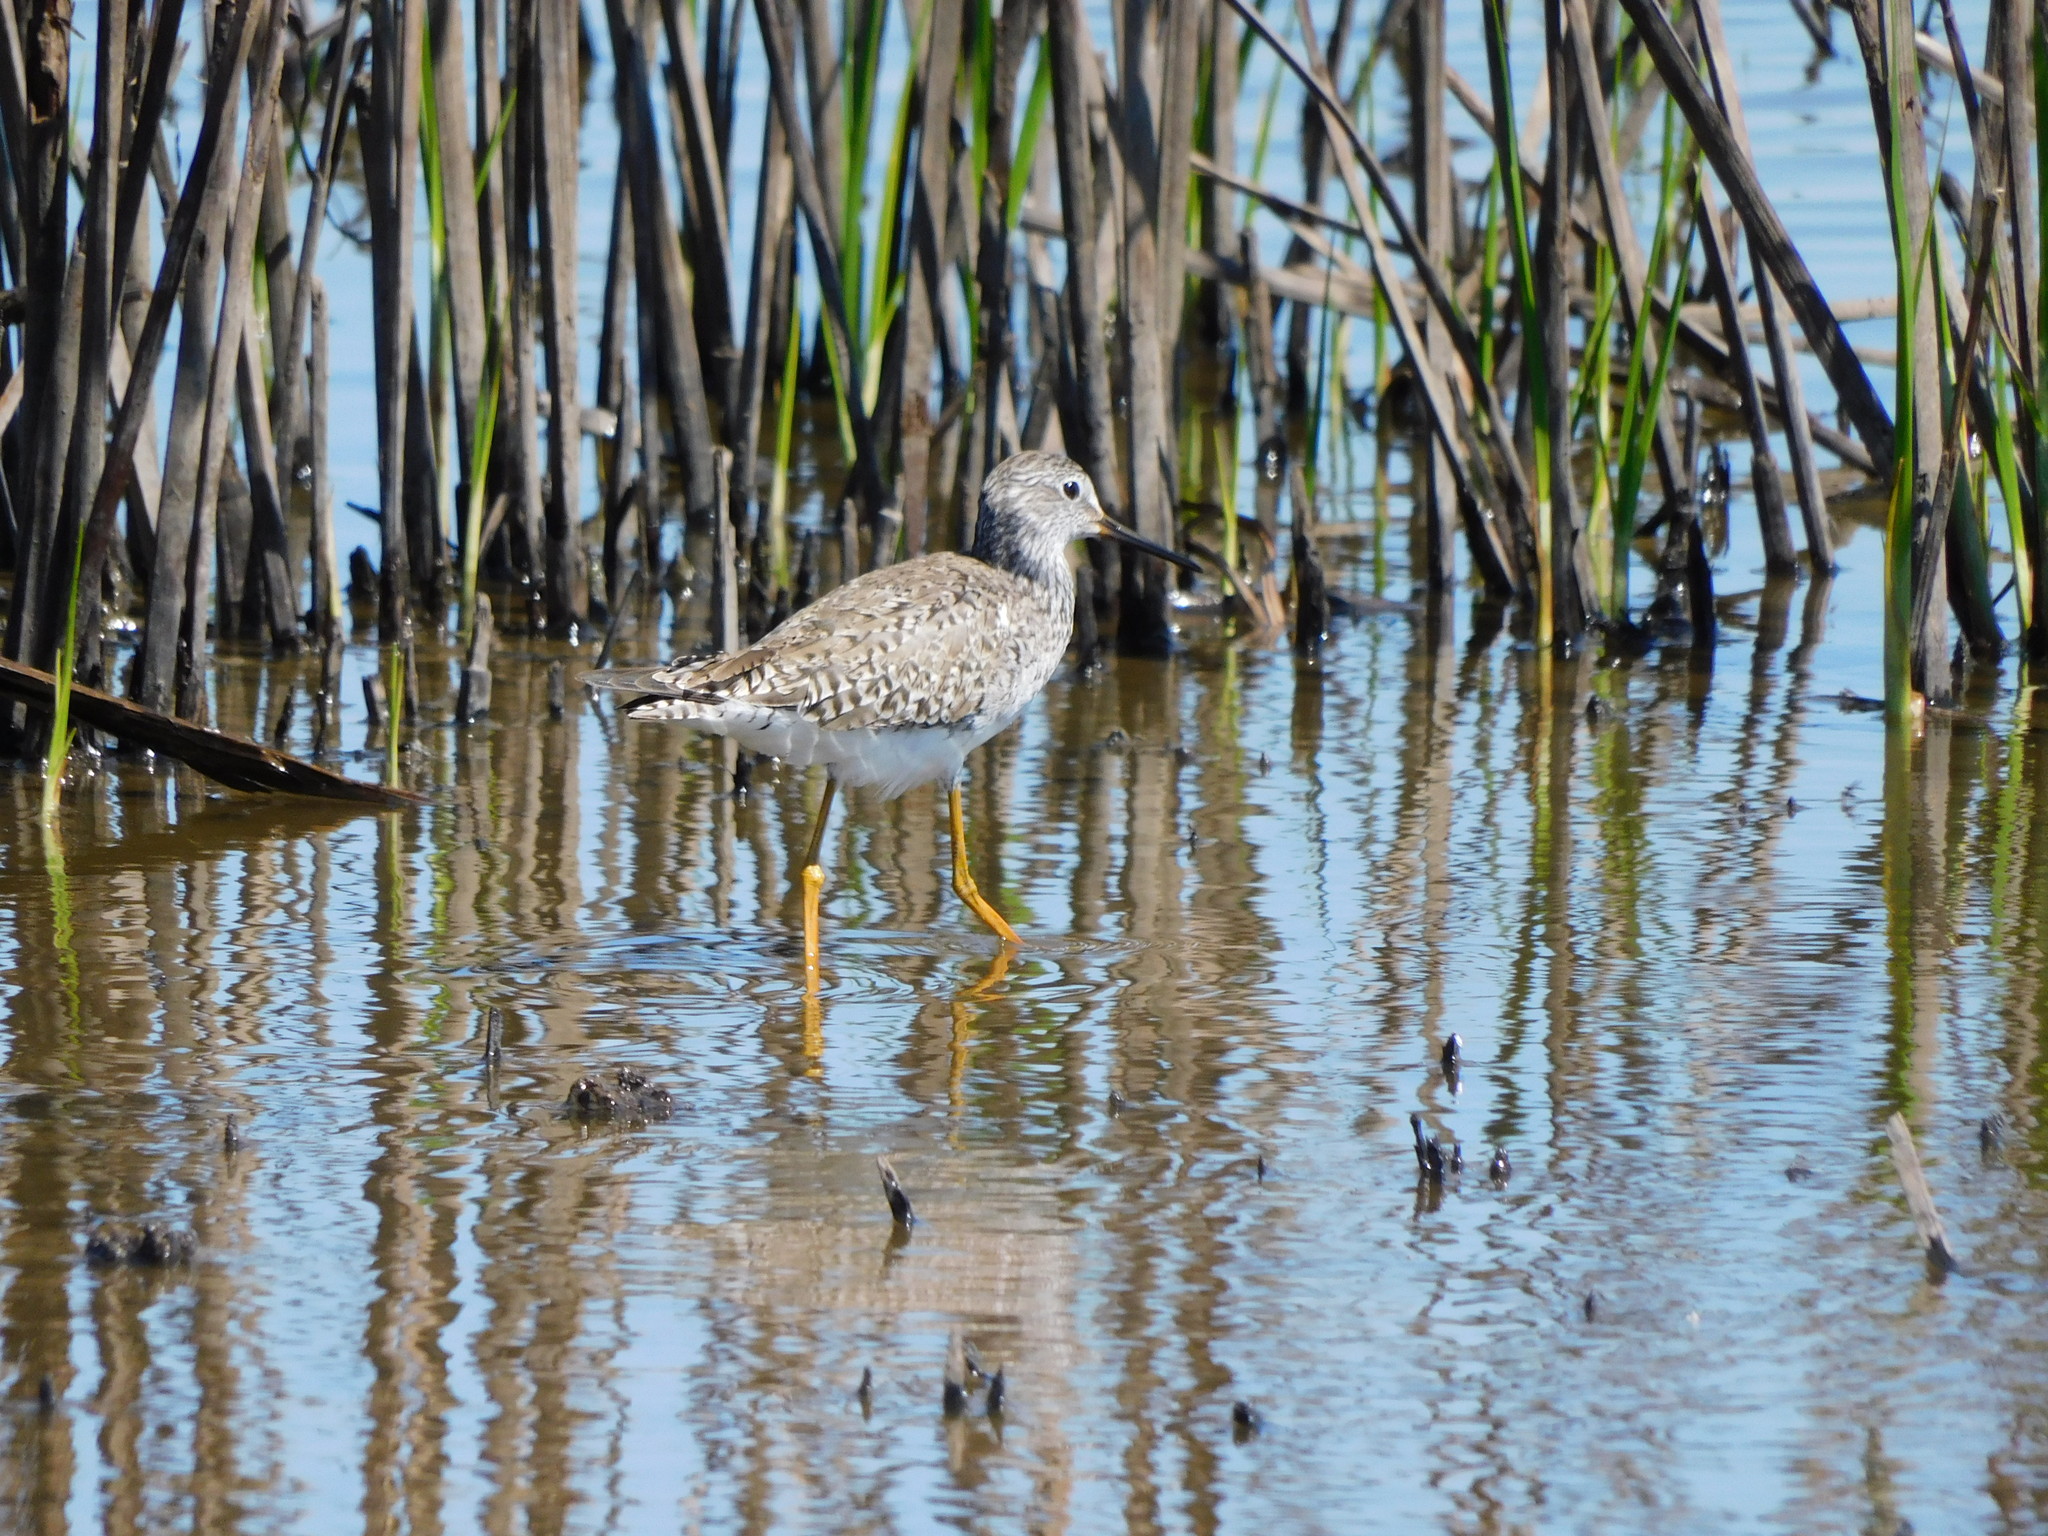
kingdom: Animalia
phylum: Chordata
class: Aves
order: Charadriiformes
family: Scolopacidae
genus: Tringa
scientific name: Tringa melanoleuca
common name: Greater yellowlegs
